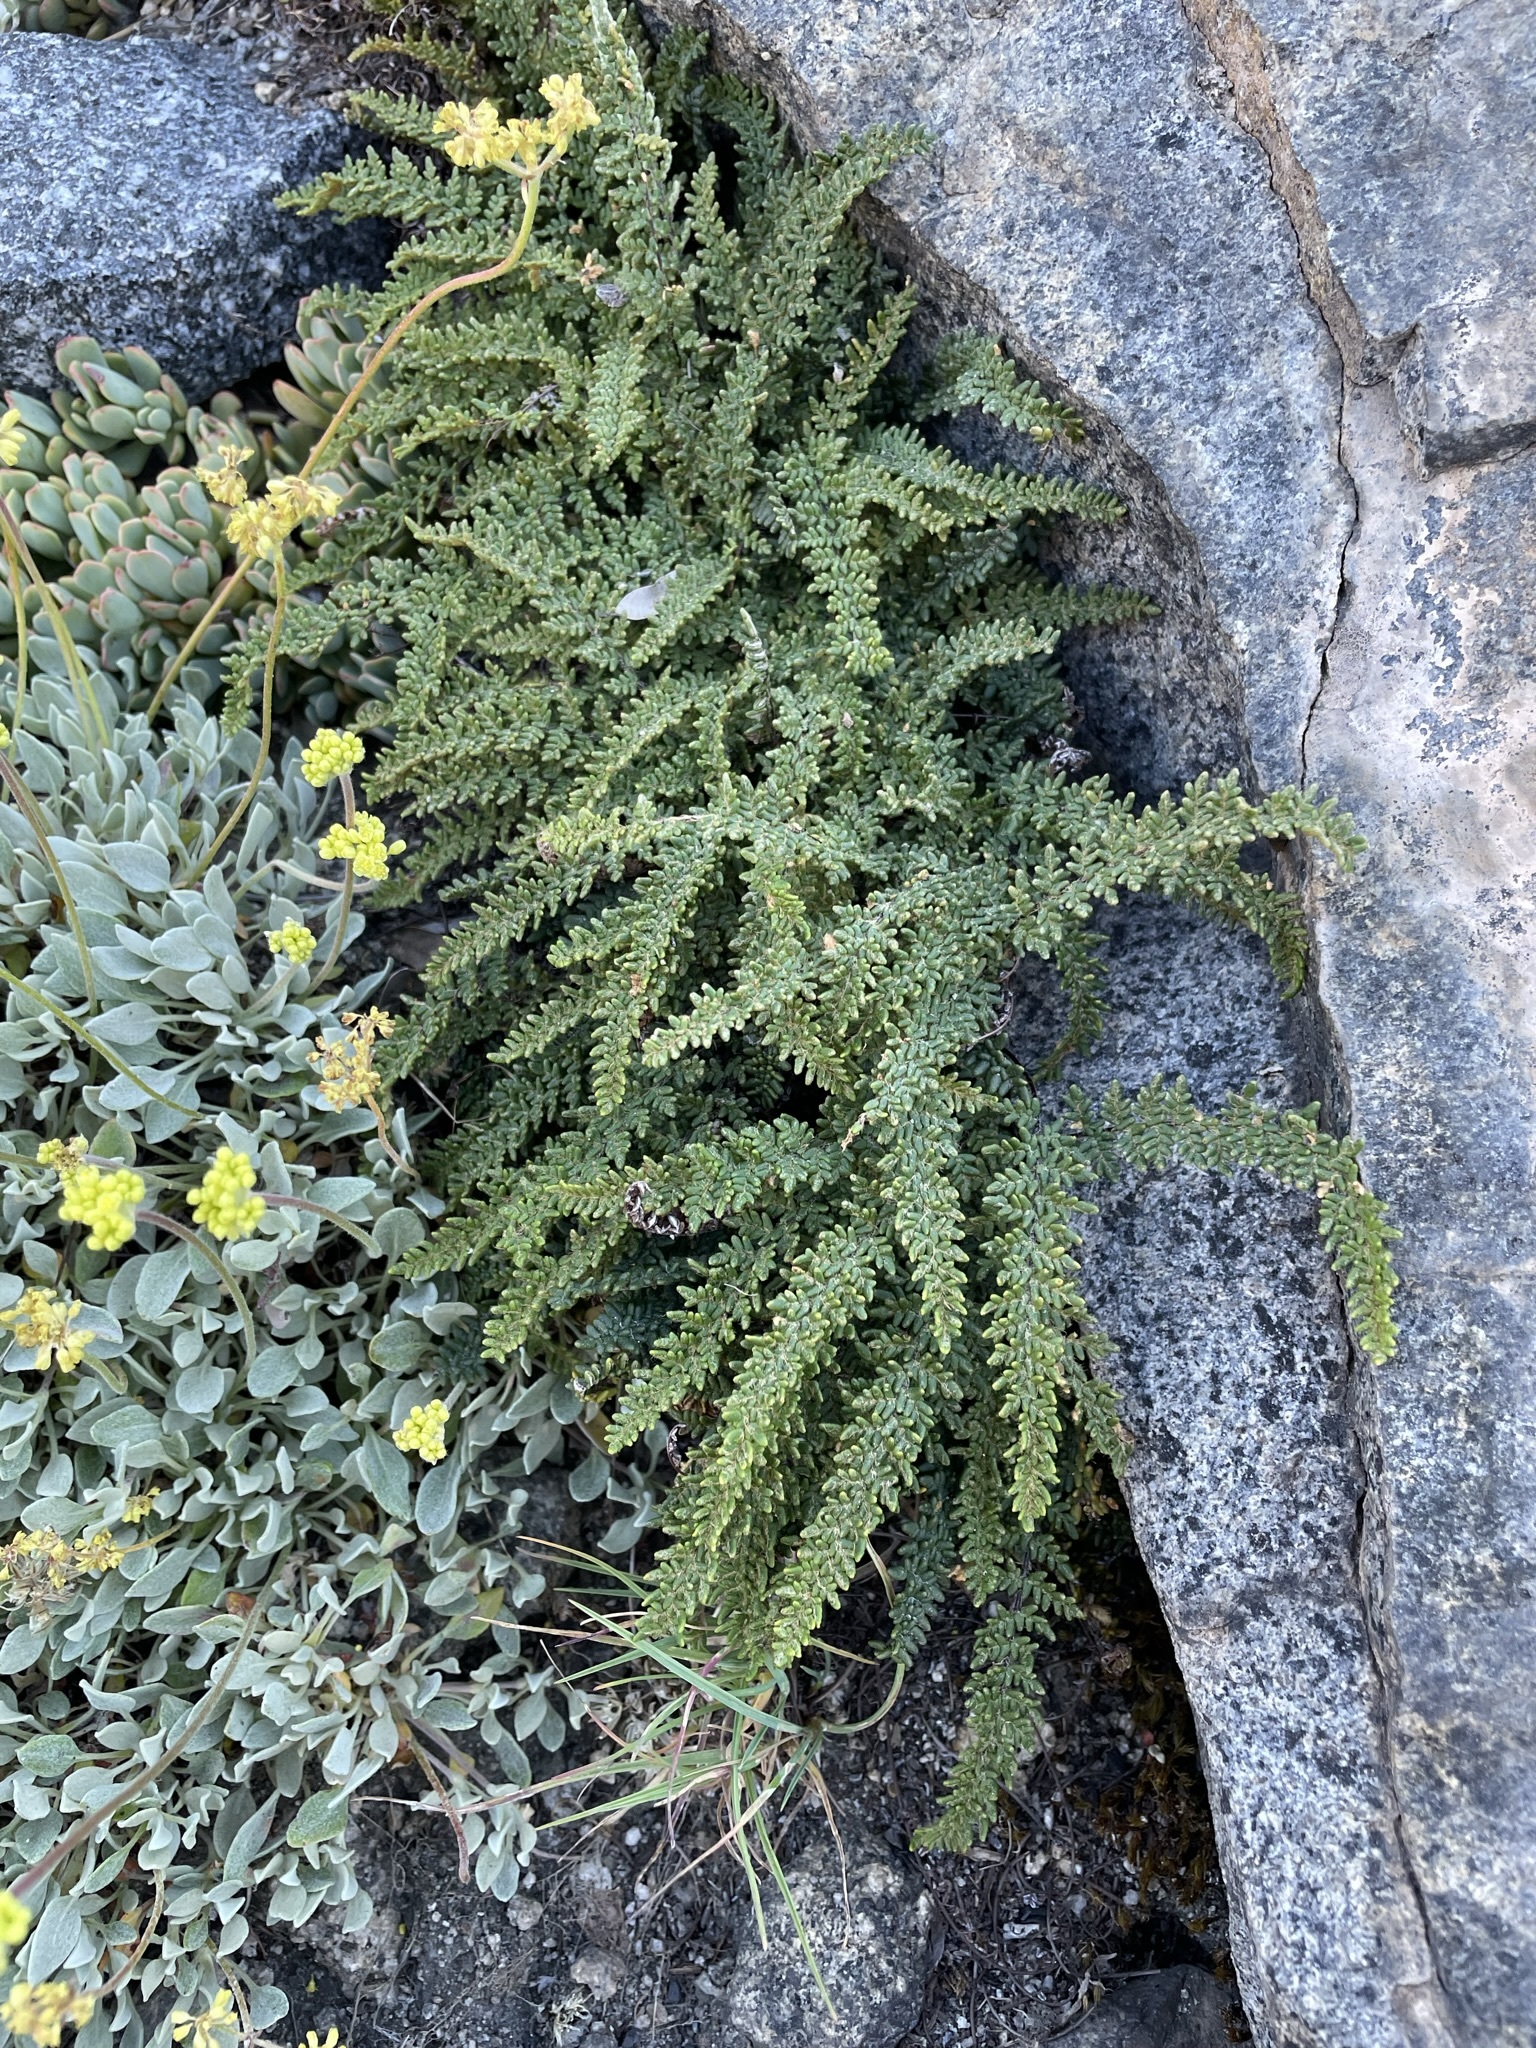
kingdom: Plantae
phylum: Tracheophyta
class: Polypodiopsida
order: Polypodiales
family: Pteridaceae
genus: Myriopteris
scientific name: Myriopteris gracillima
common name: Lace fern
